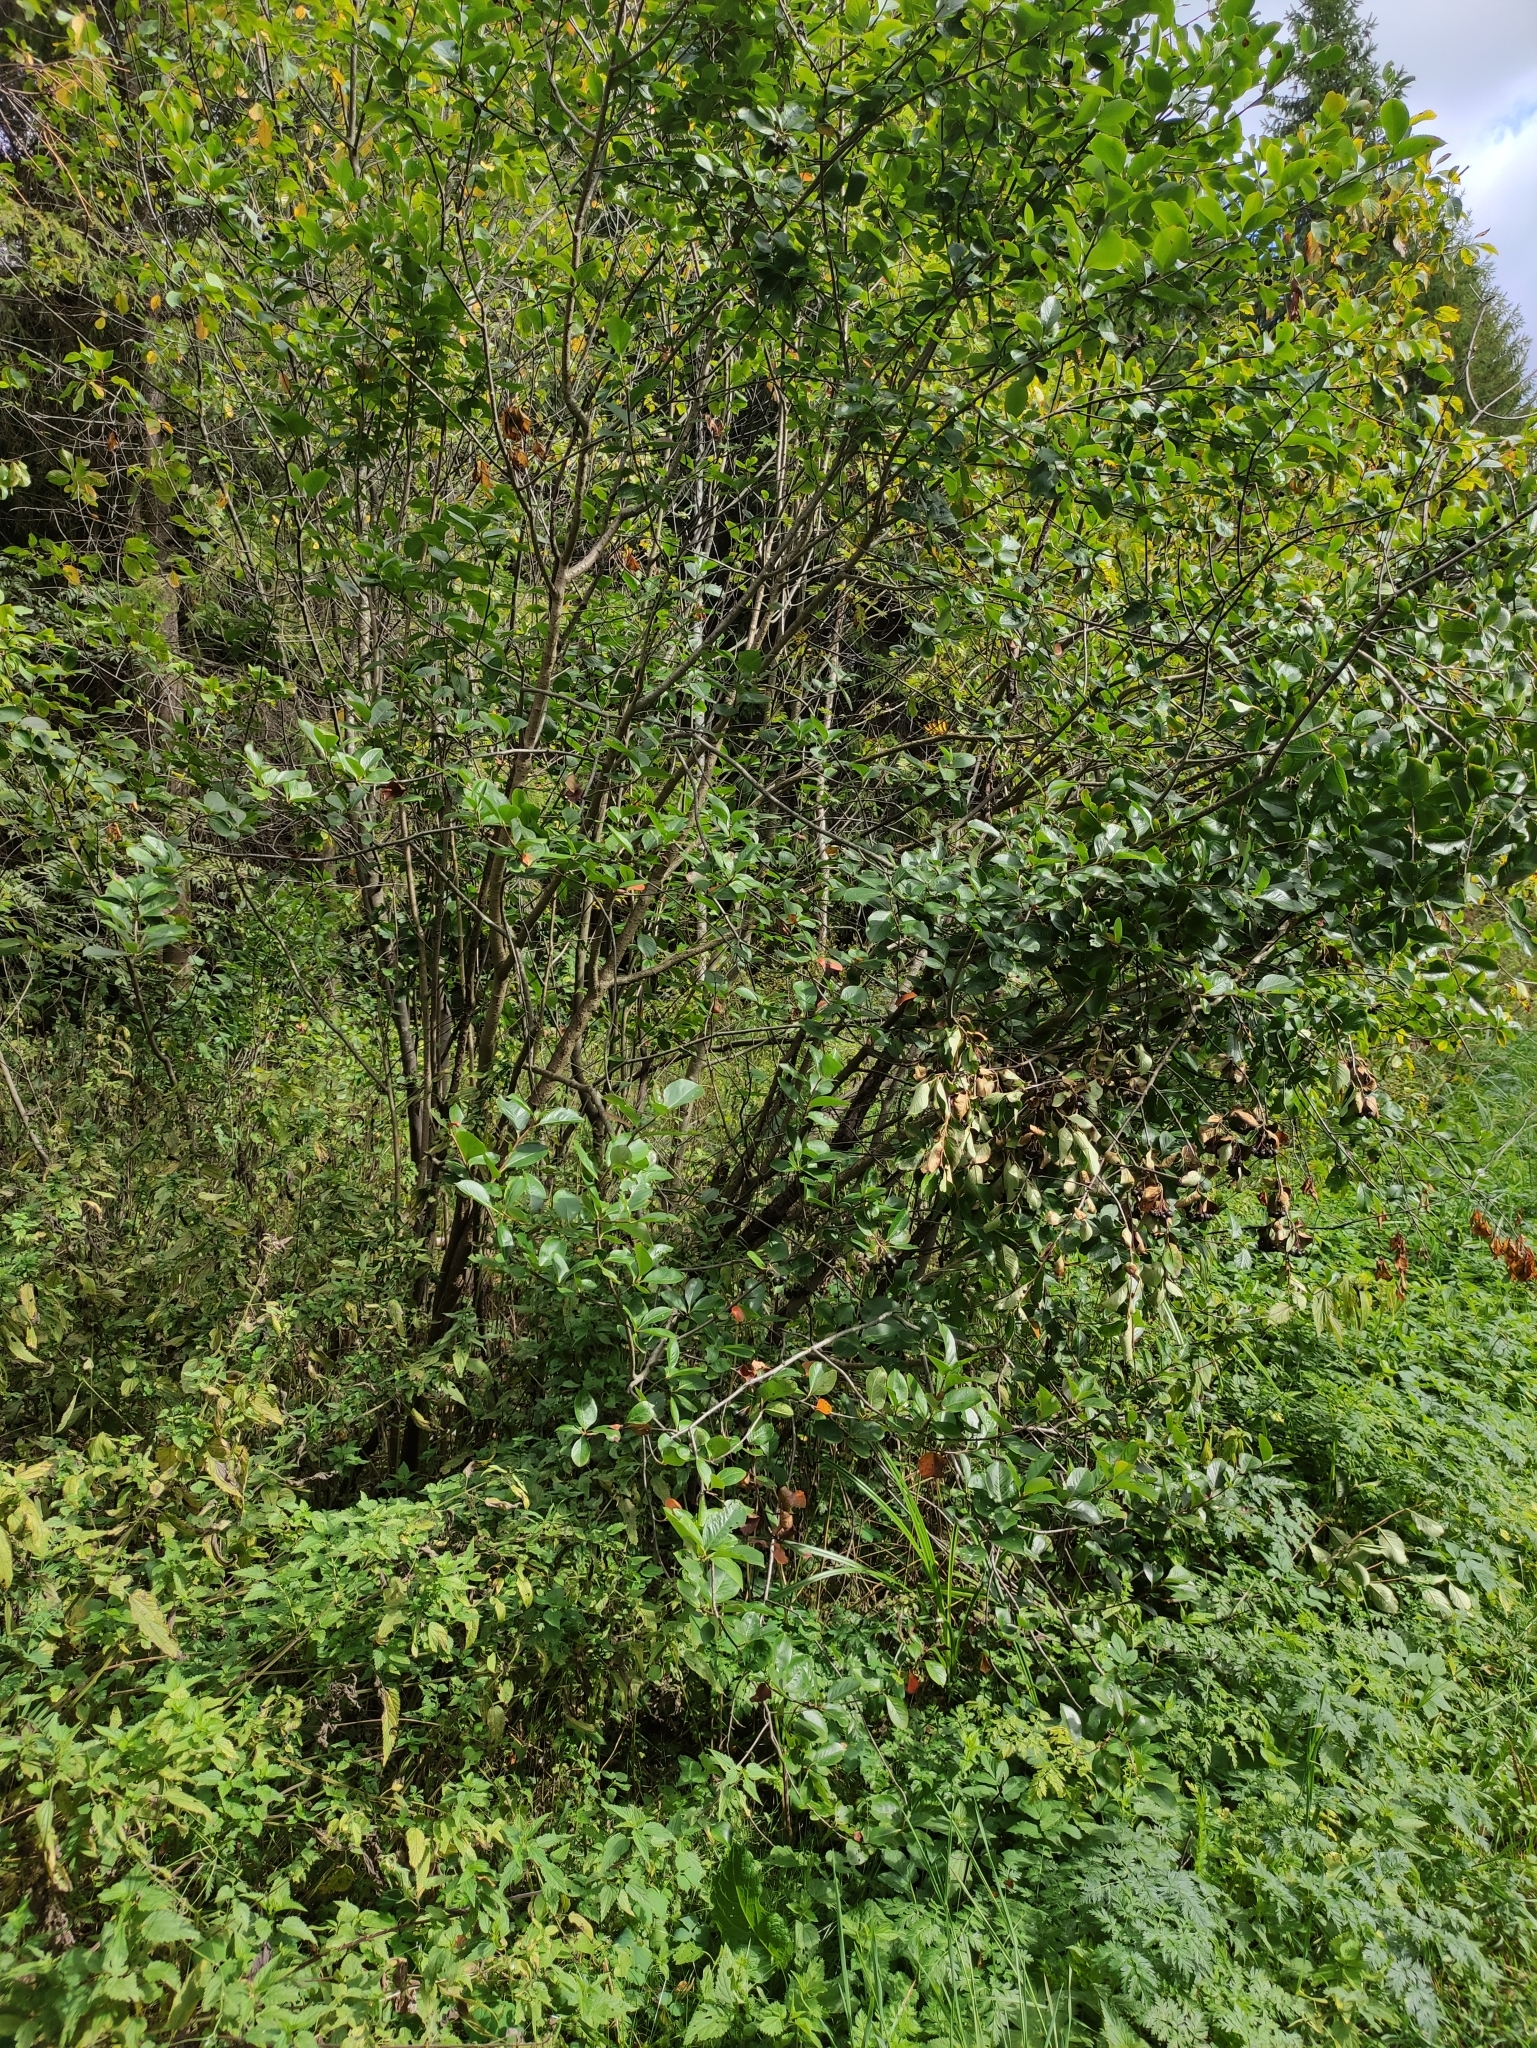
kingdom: Plantae
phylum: Tracheophyta
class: Magnoliopsida
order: Rosales
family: Rosaceae
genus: Sorbaronia
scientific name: Sorbaronia arsenii
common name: Arsène's mountain-ash
